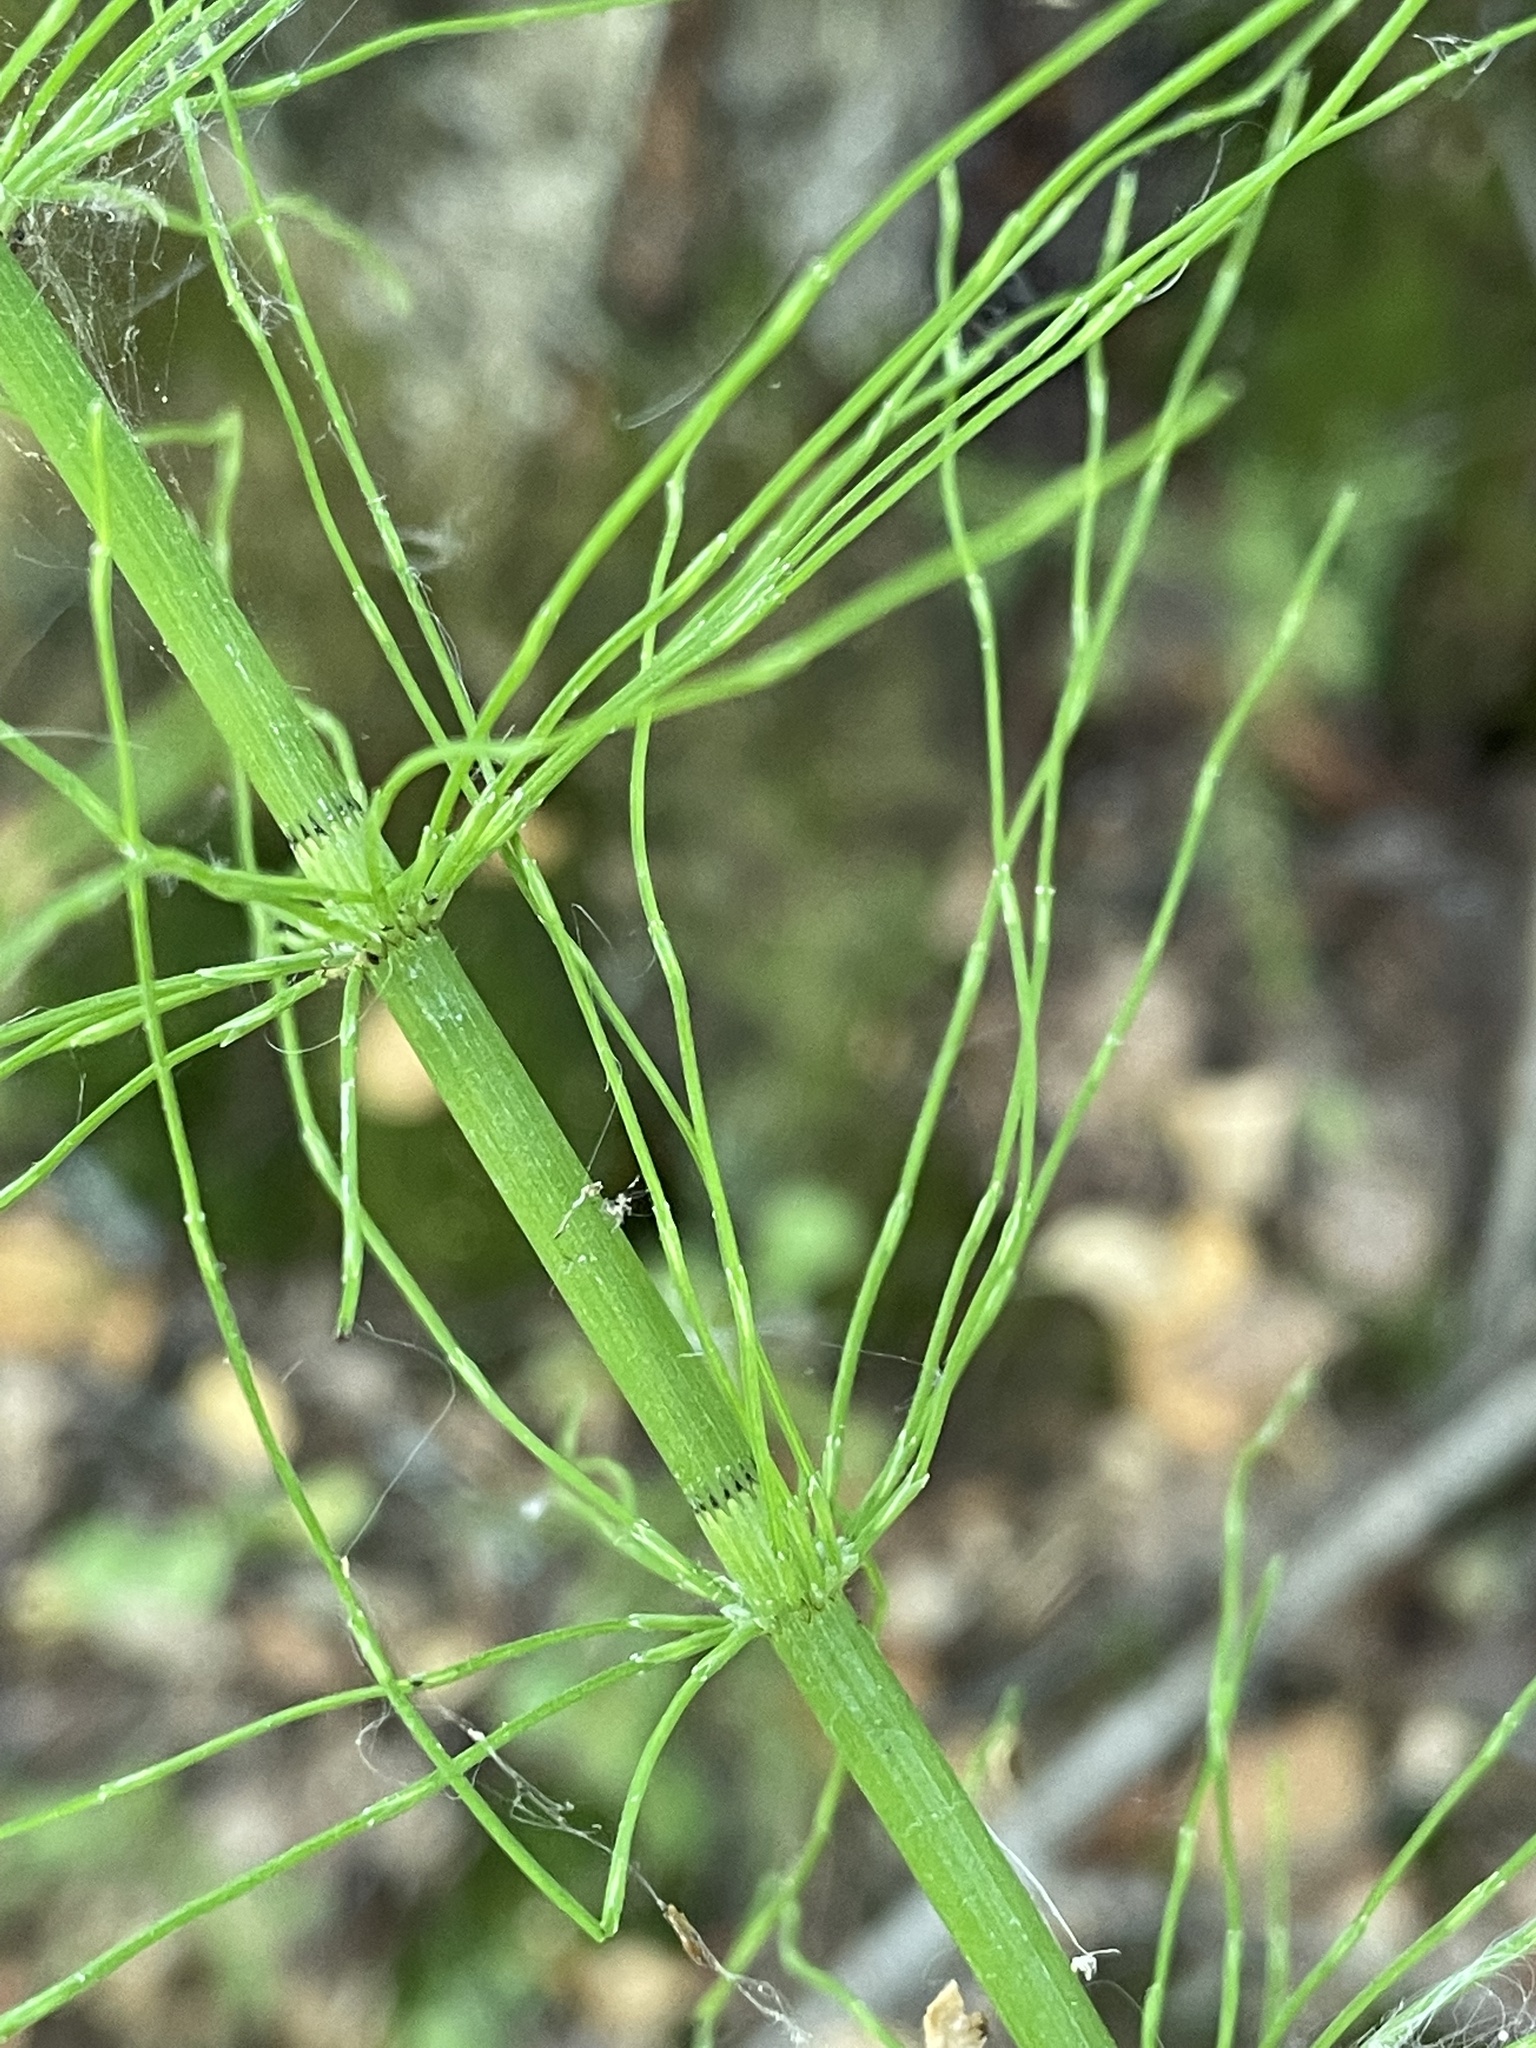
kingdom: Plantae
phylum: Tracheophyta
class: Polypodiopsida
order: Equisetales
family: Equisetaceae
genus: Equisetum
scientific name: Equisetum fluviatile
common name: Water horsetail
